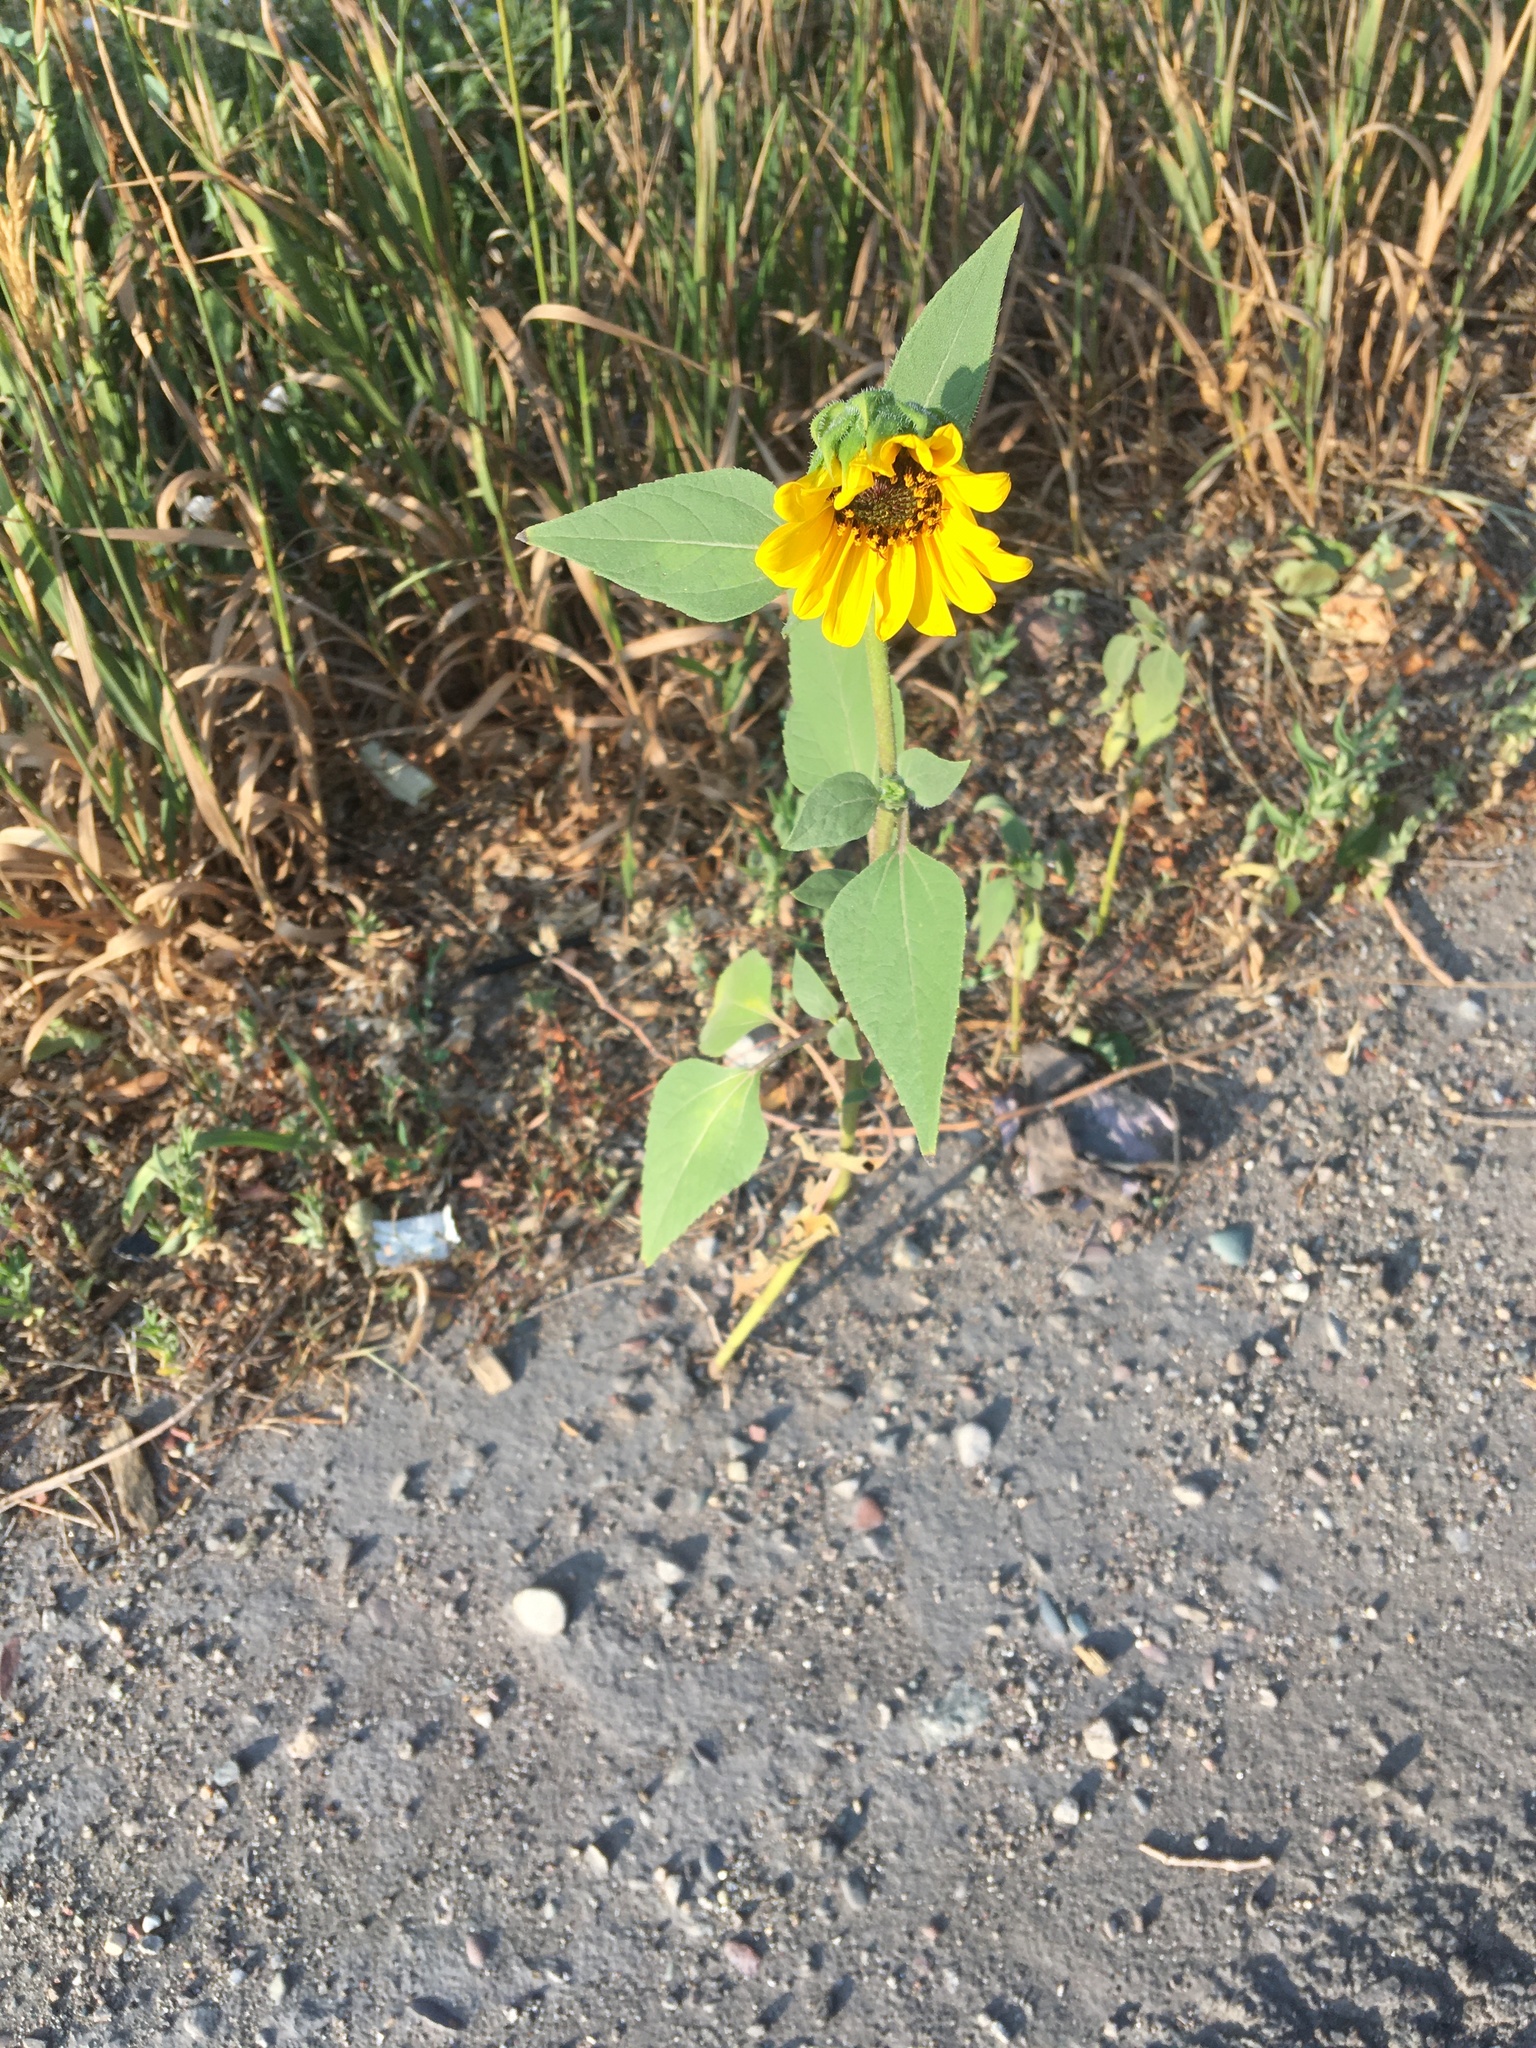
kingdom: Plantae
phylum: Tracheophyta
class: Magnoliopsida
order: Asterales
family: Asteraceae
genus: Helianthus
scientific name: Helianthus annuus
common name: Sunflower
